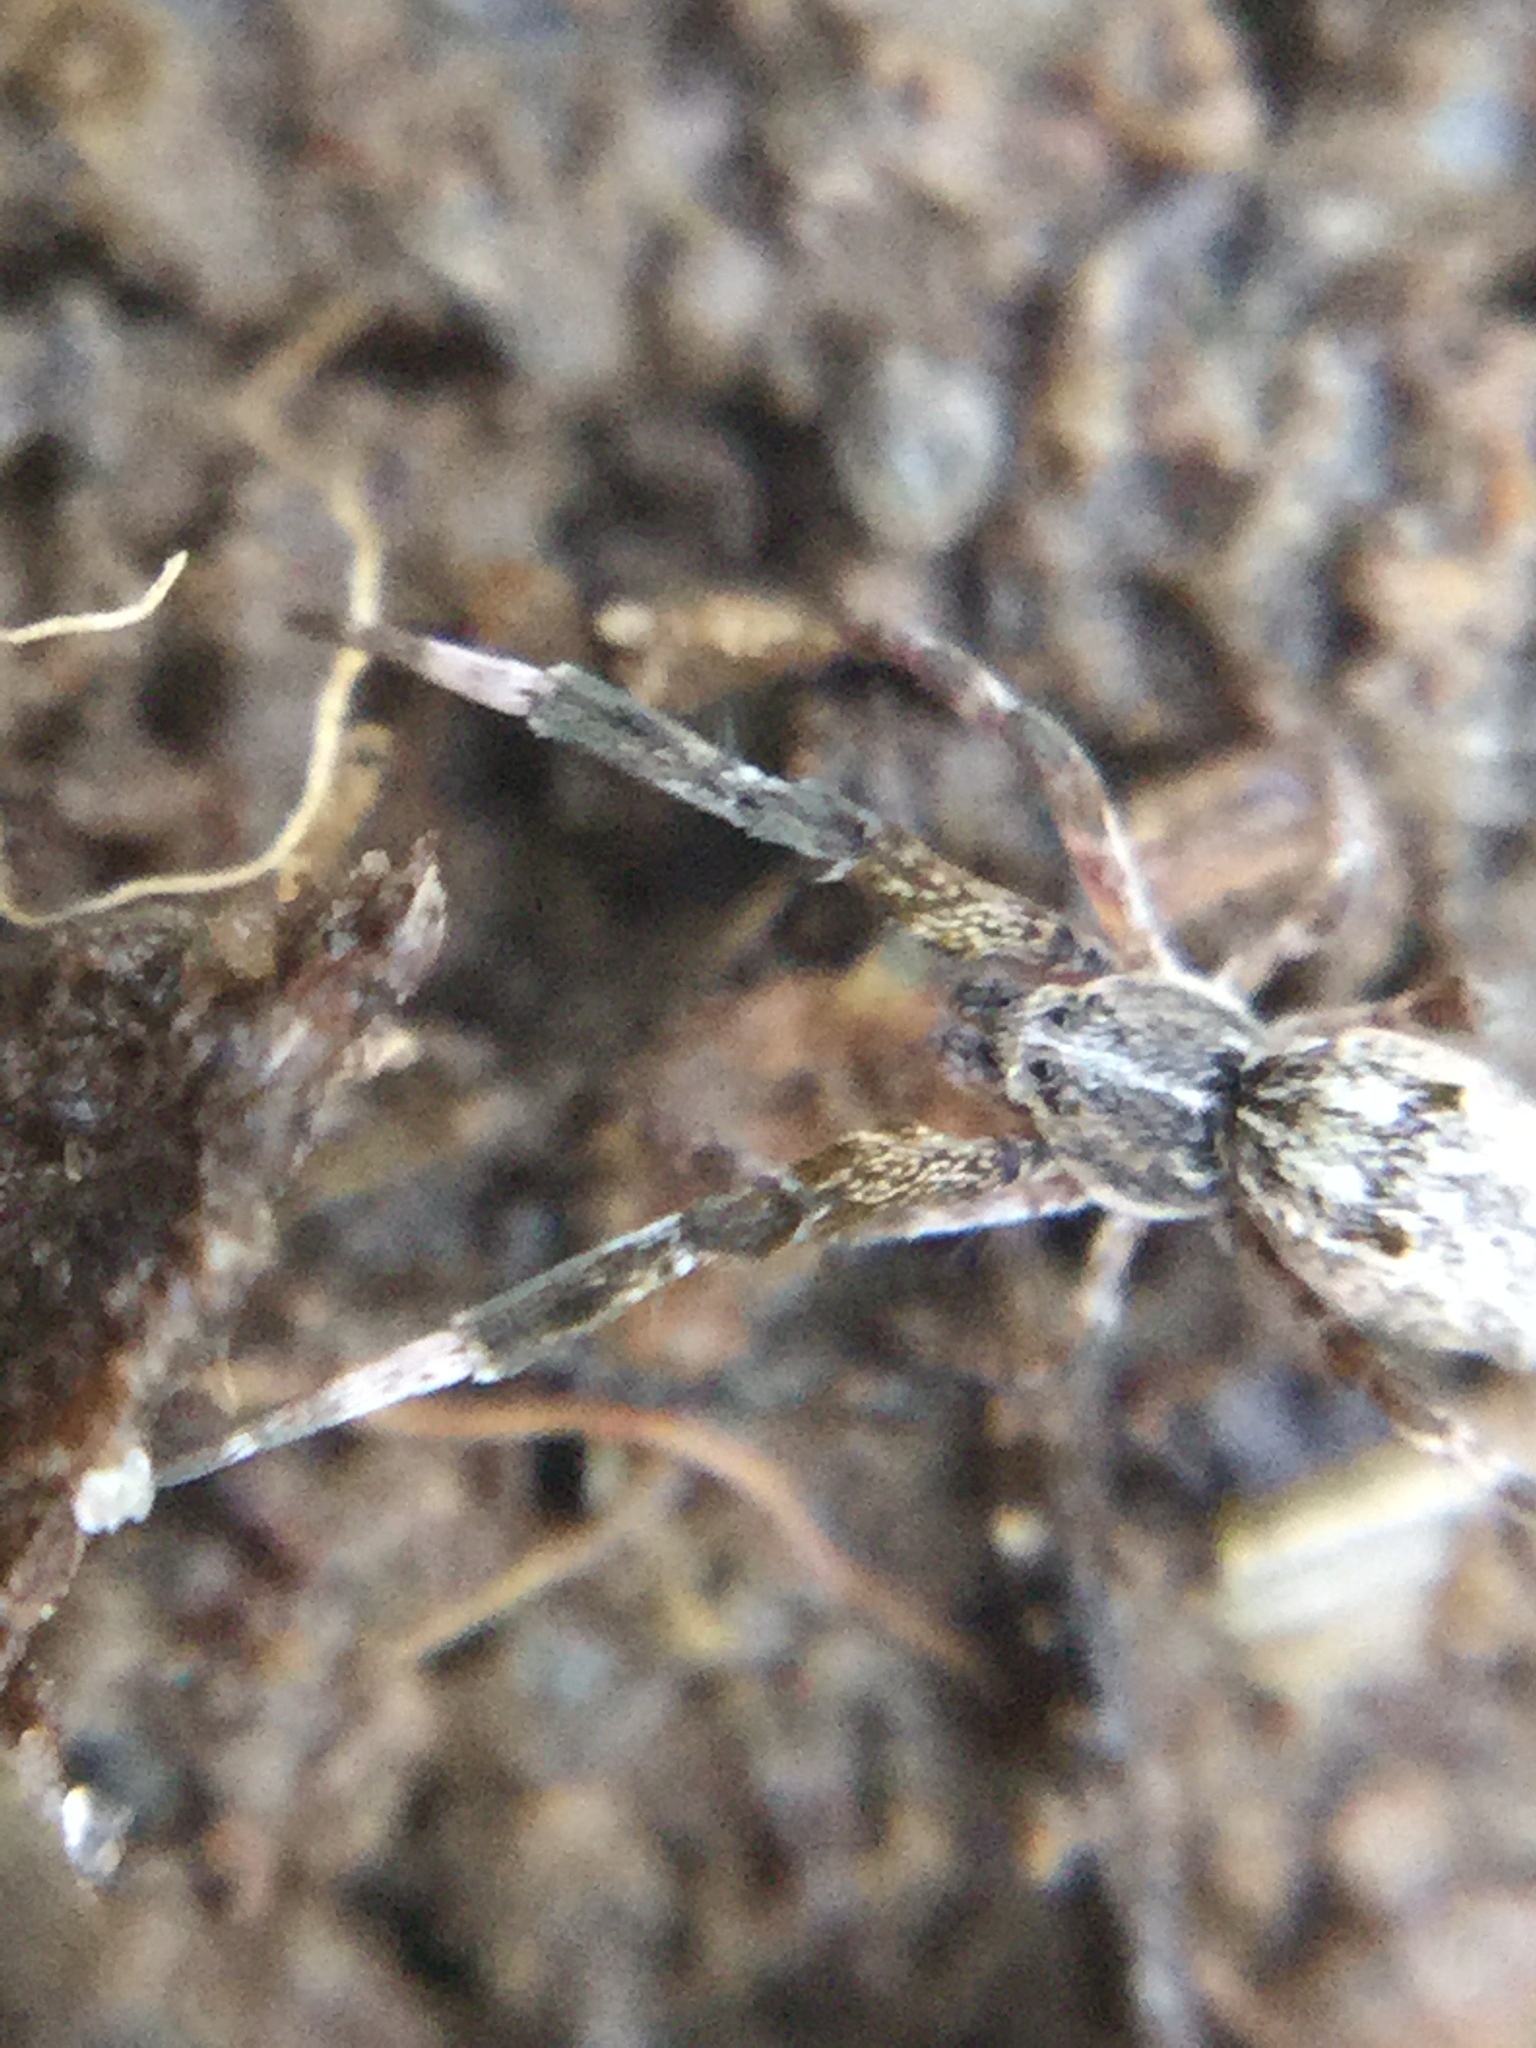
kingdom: Animalia
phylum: Arthropoda
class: Arachnida
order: Araneae
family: Uloboridae
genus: Uloborus
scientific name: Uloborus glomosus
